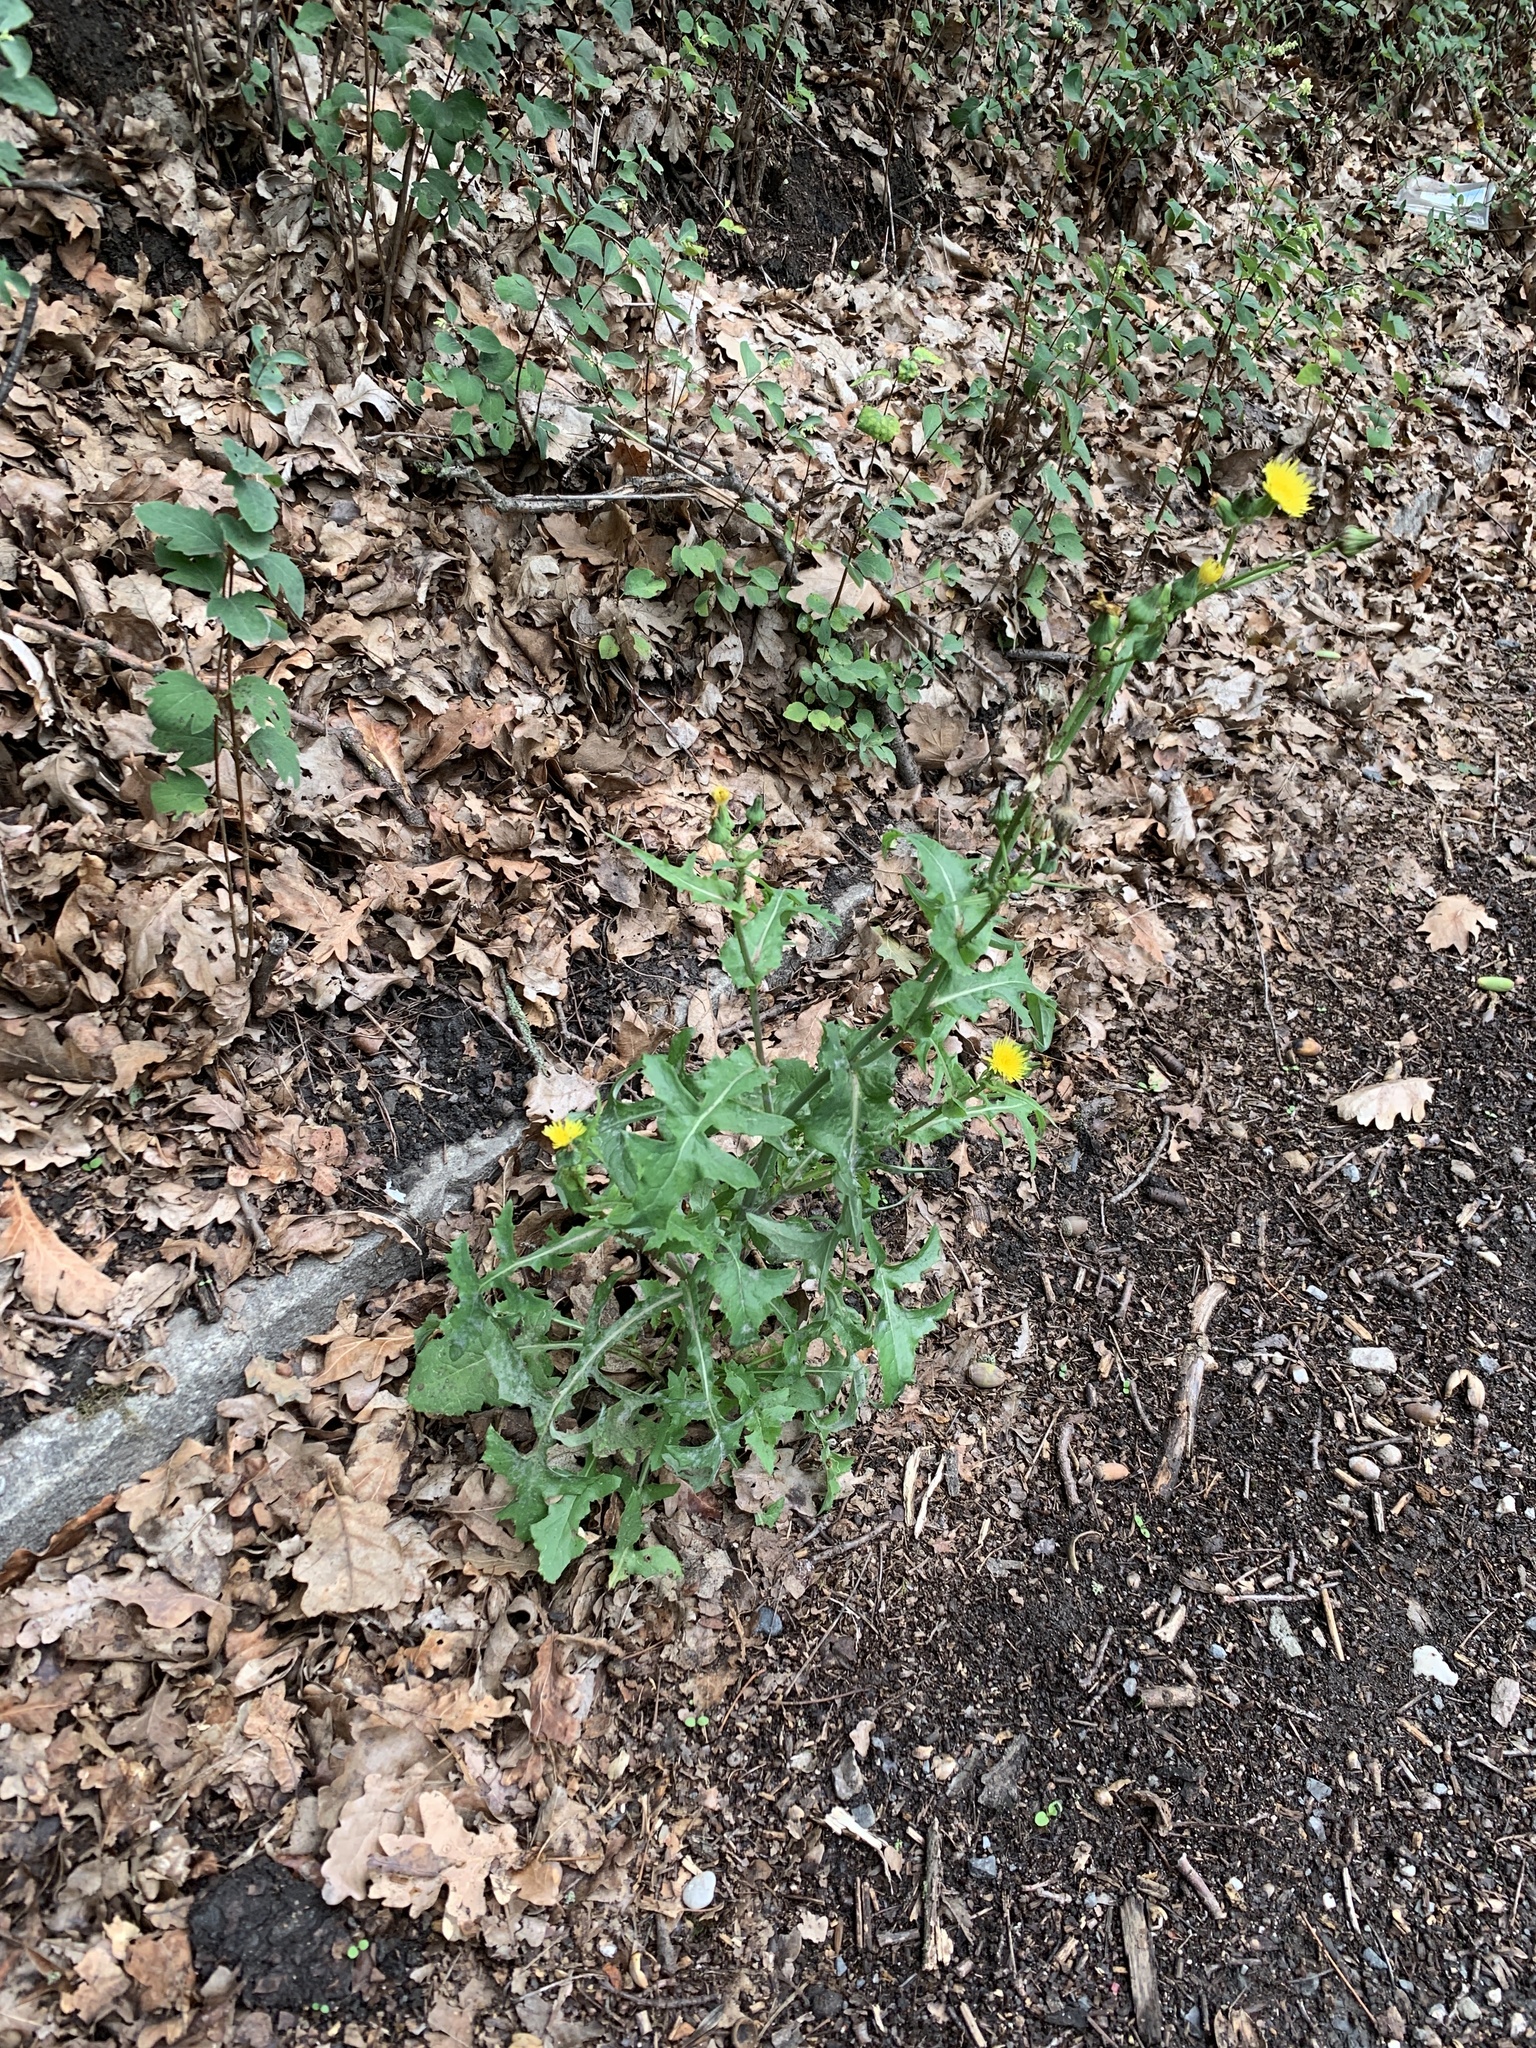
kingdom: Plantae
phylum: Tracheophyta
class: Magnoliopsida
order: Asterales
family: Asteraceae
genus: Sonchus
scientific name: Sonchus oleraceus
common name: Common sowthistle
